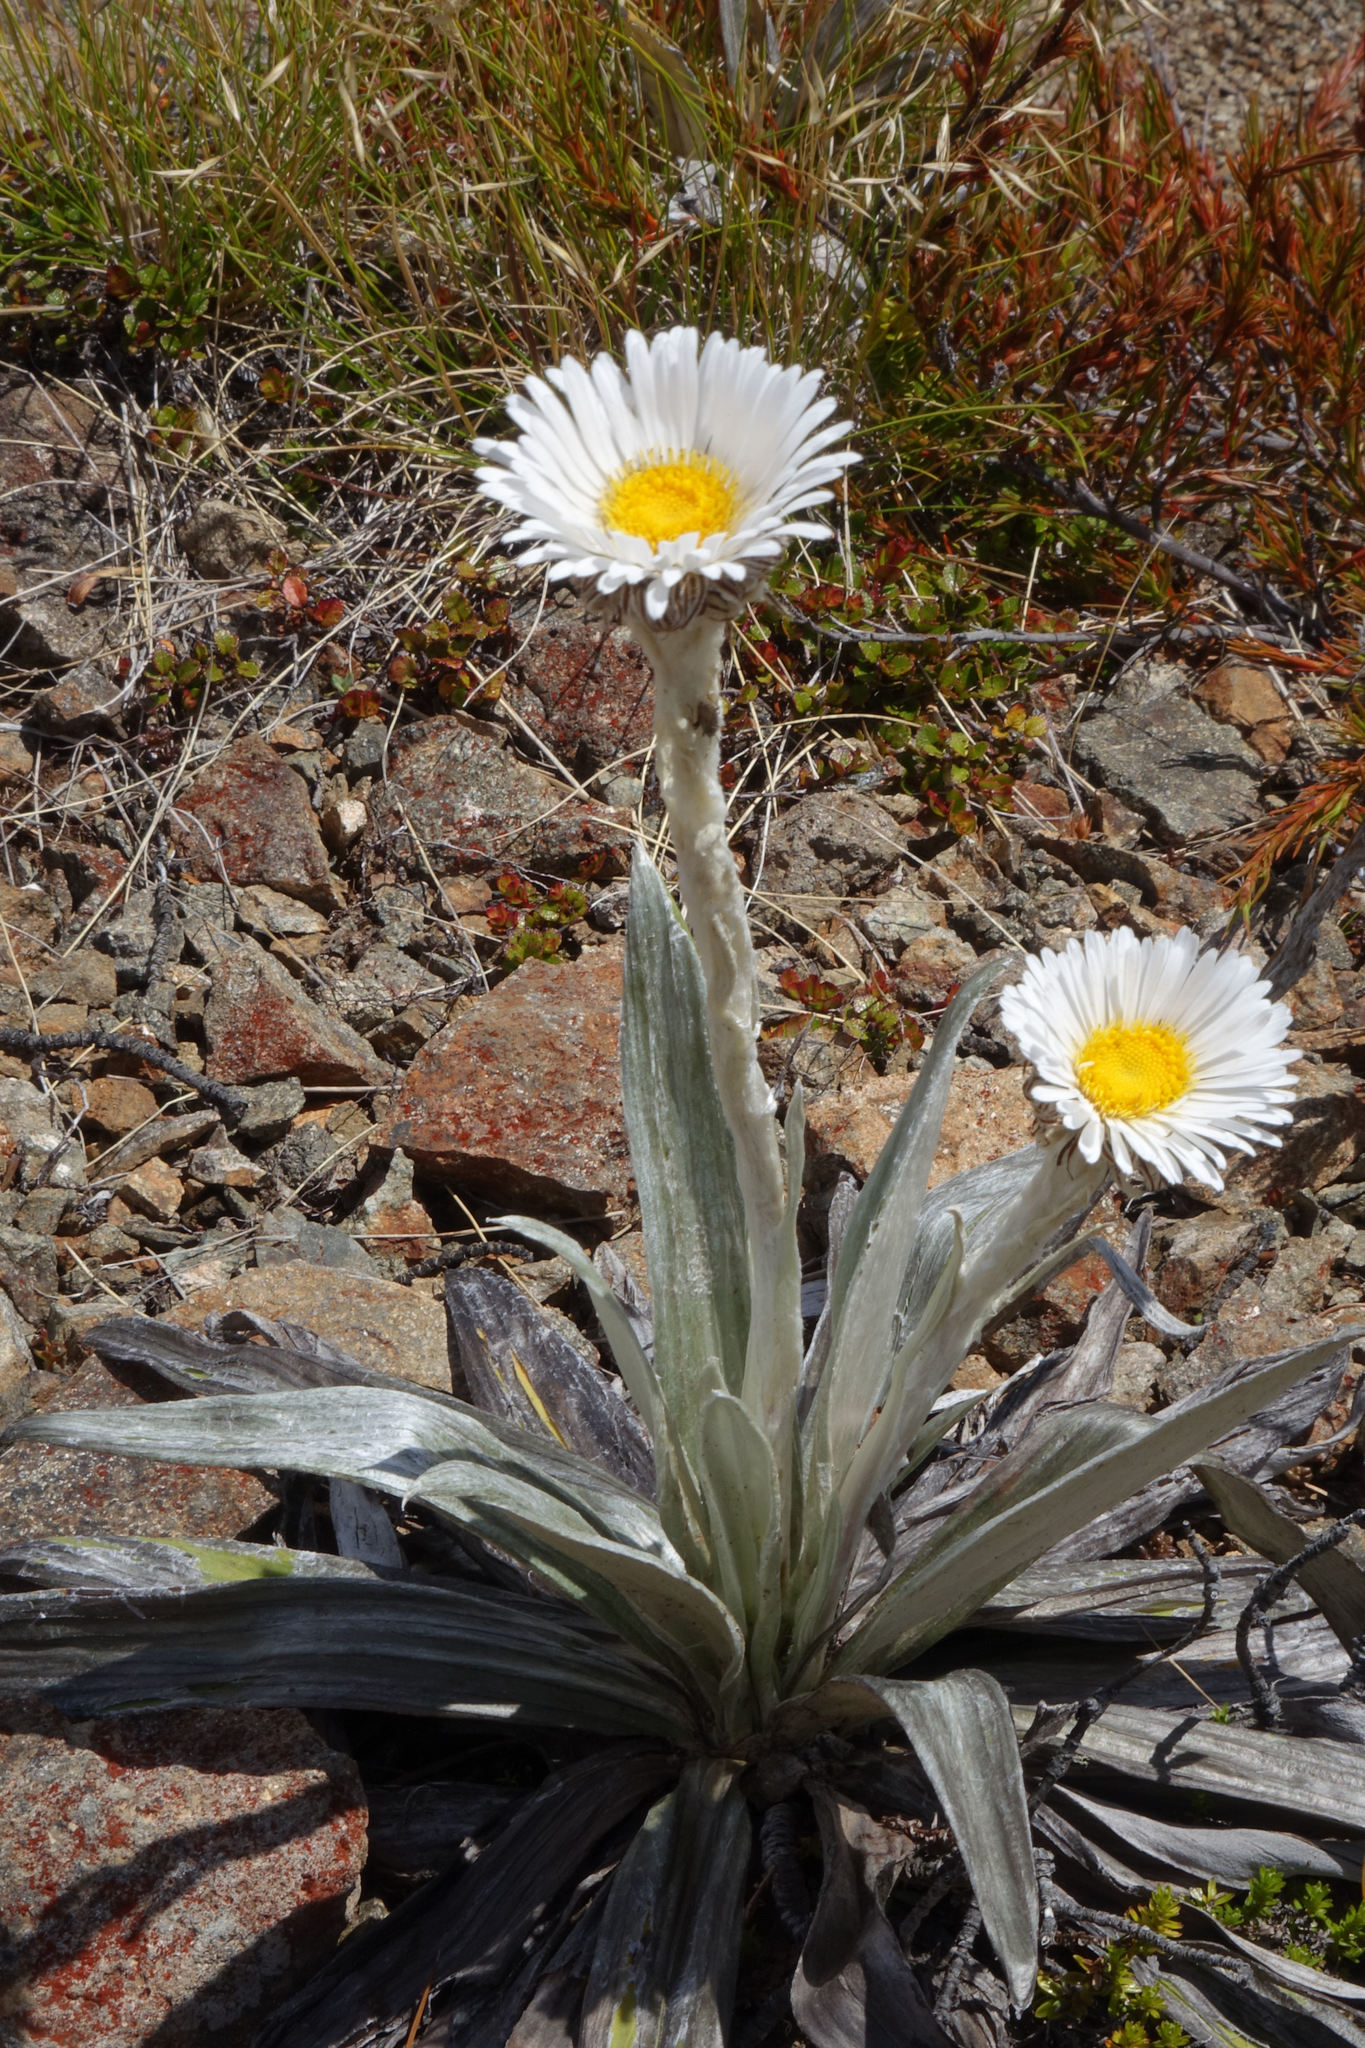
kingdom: Plantae
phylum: Tracheophyta
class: Magnoliopsida
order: Asterales
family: Asteraceae
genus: Celmisia
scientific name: Celmisia semicordata
